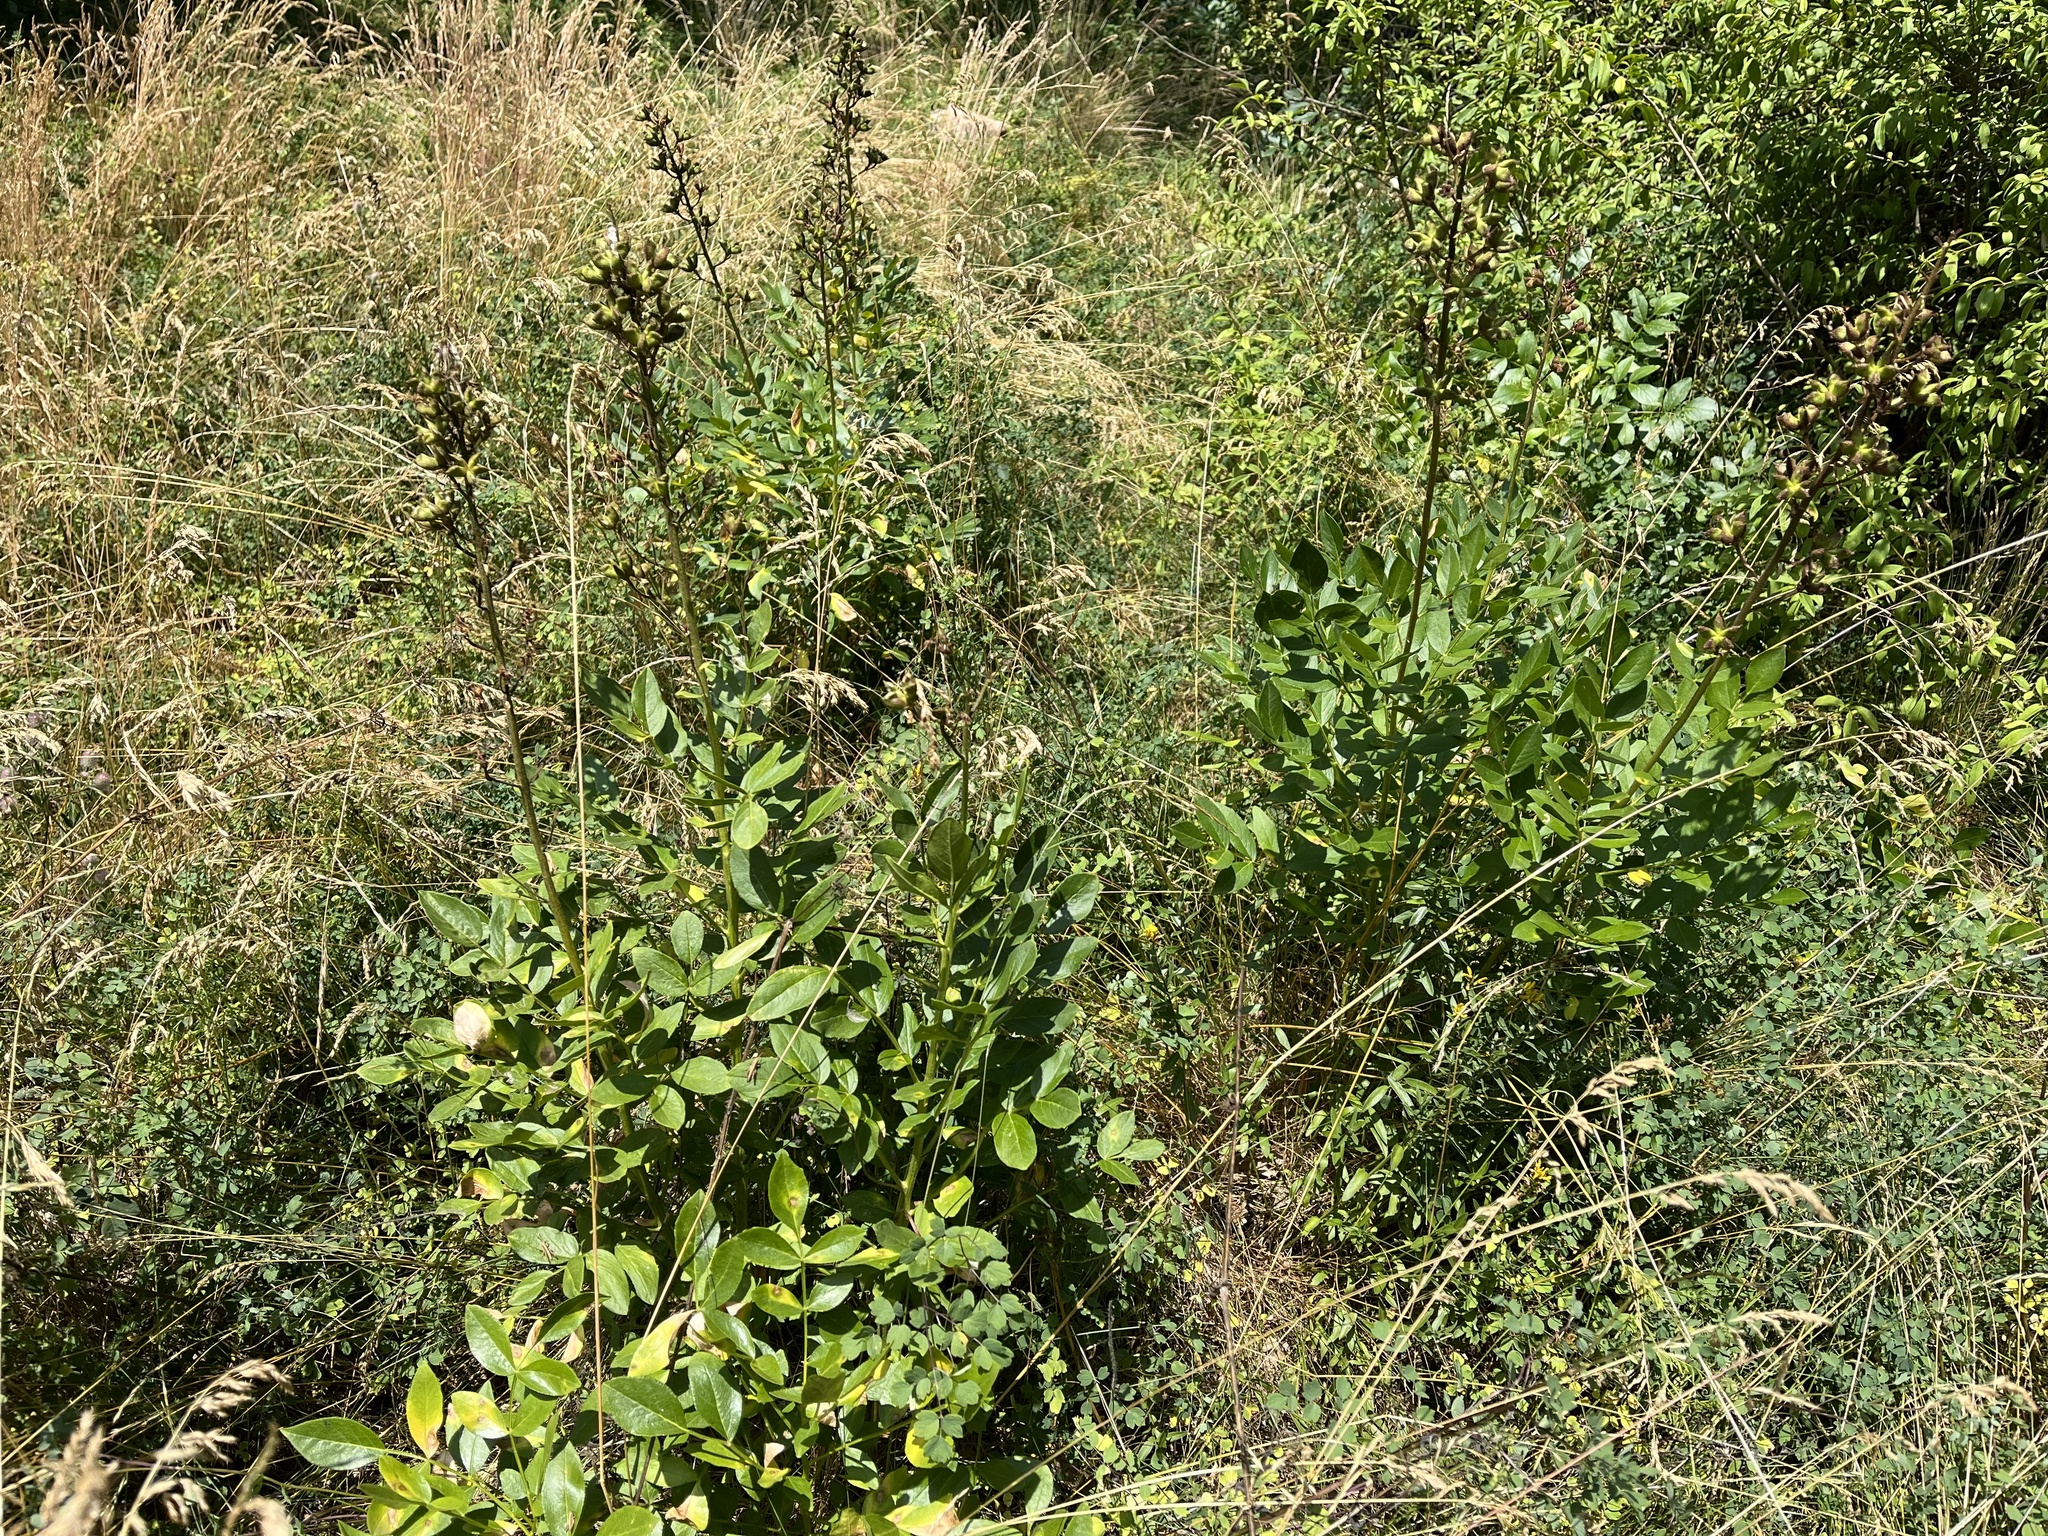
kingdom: Plantae
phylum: Tracheophyta
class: Magnoliopsida
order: Sapindales
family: Rutaceae
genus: Dictamnus
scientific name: Dictamnus albus
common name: Gasplant
